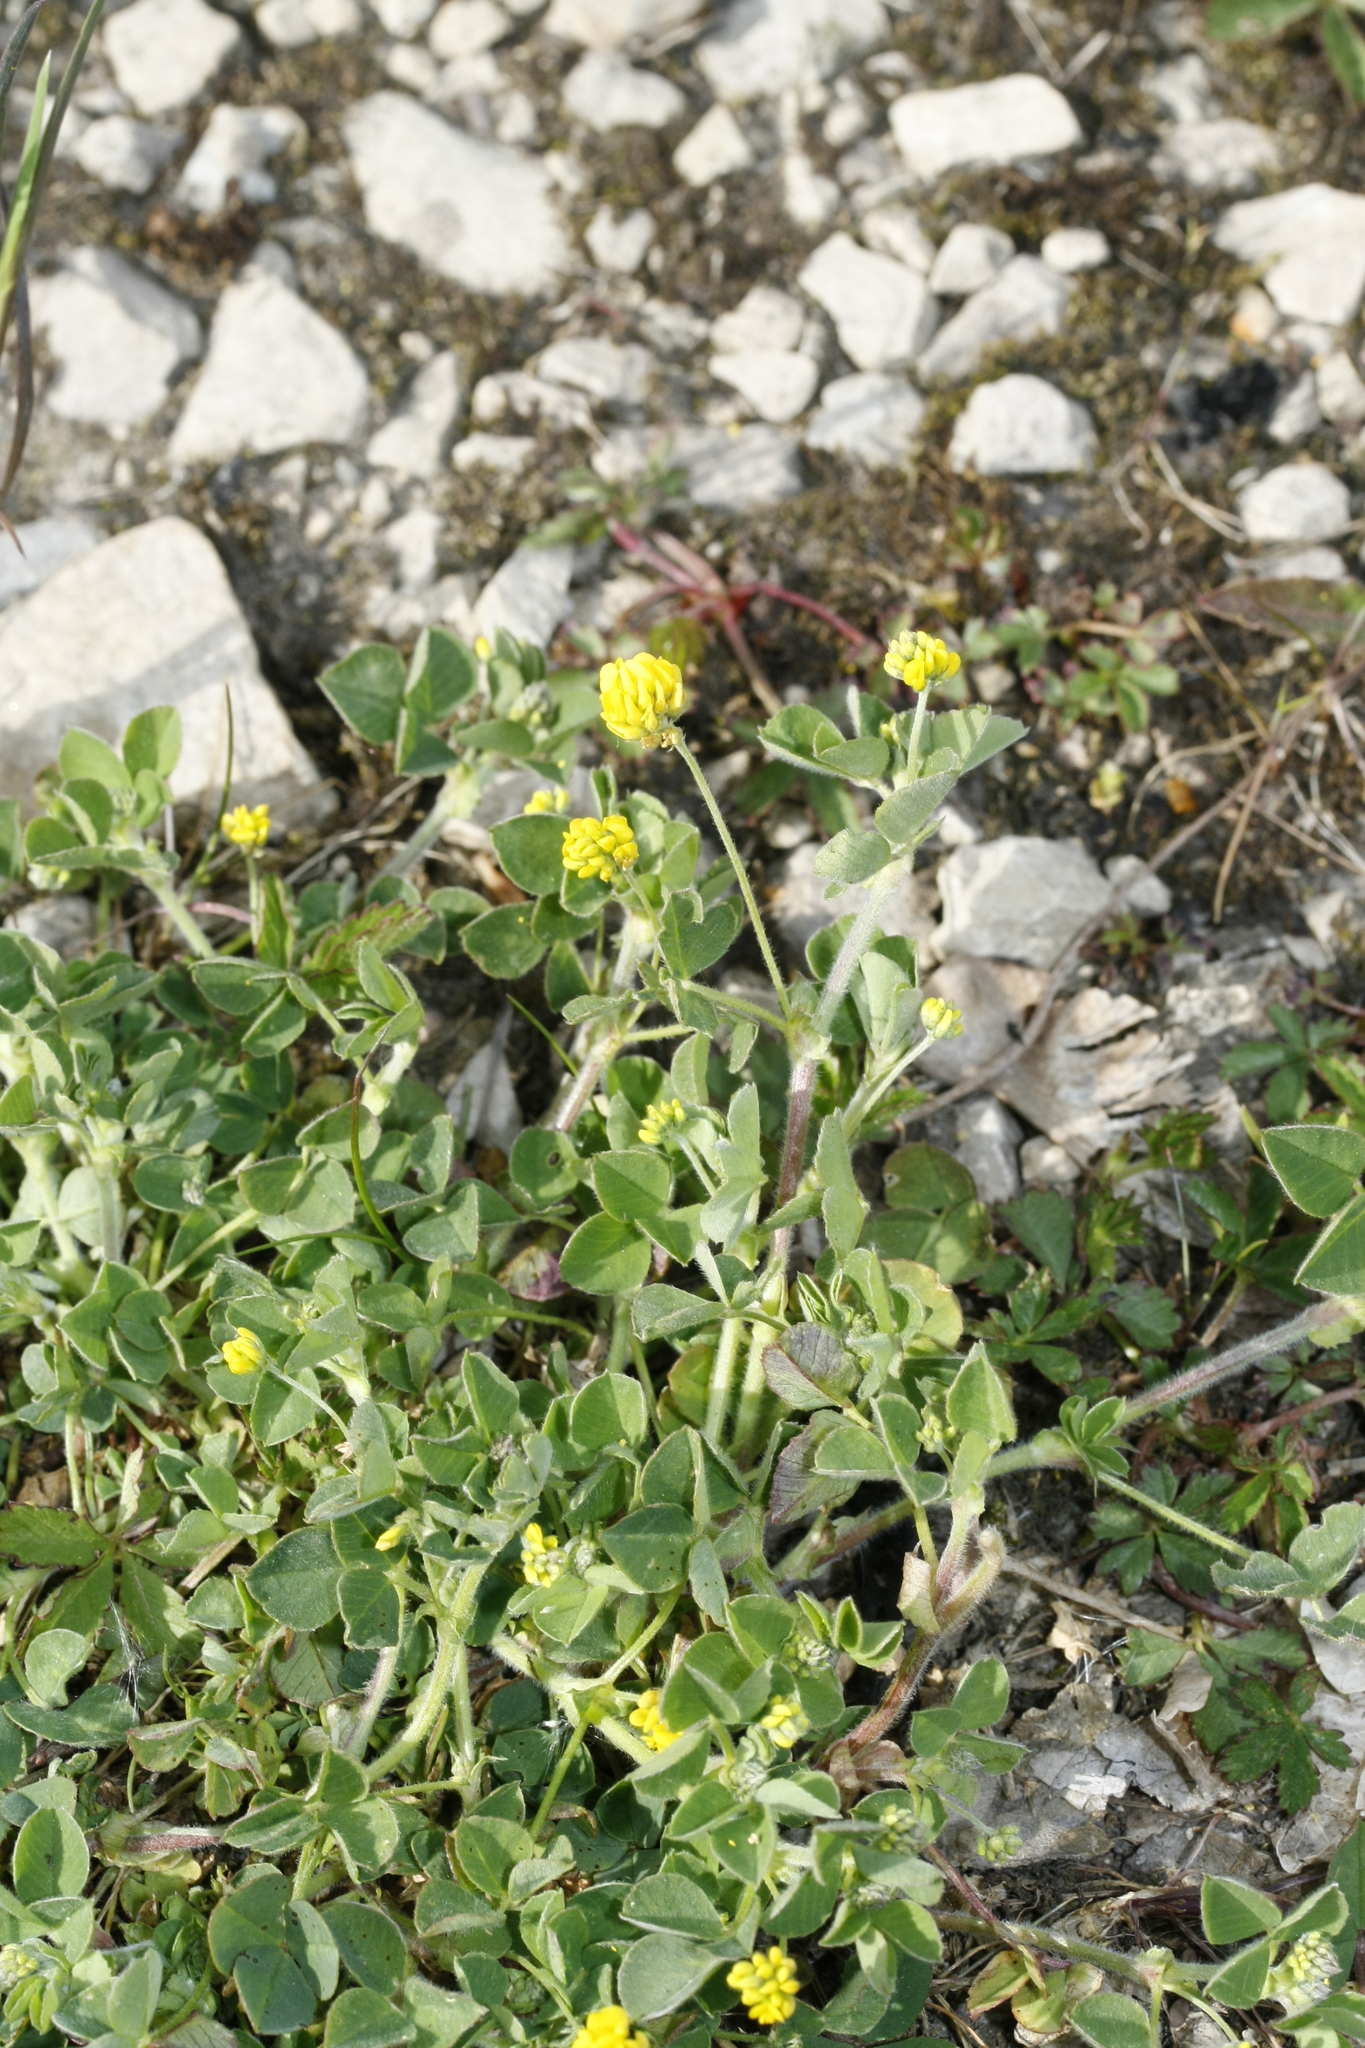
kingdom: Plantae
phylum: Tracheophyta
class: Magnoliopsida
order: Fabales
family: Fabaceae
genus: Medicago
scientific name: Medicago lupulina
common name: Black medick
